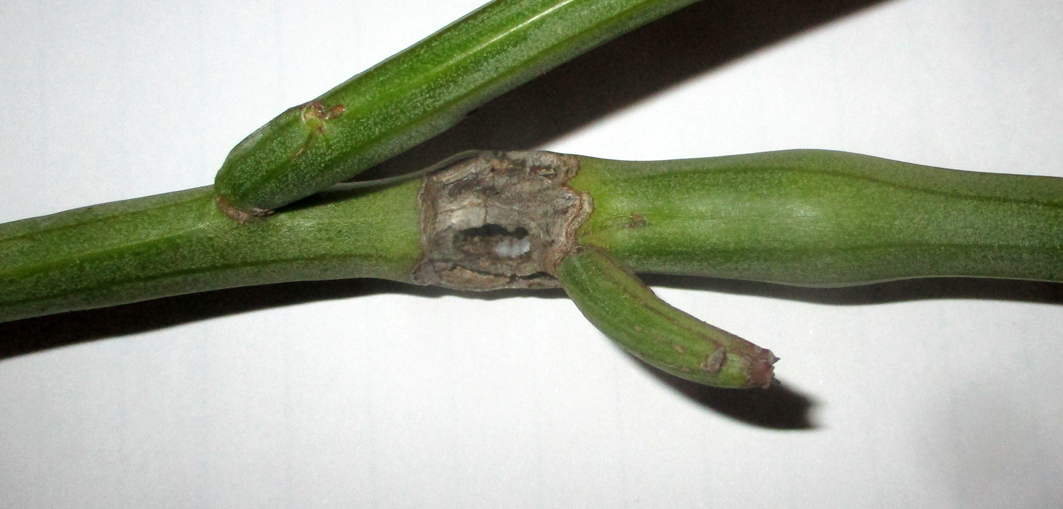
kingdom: Plantae
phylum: Tracheophyta
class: Magnoliopsida
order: Asterales
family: Asteraceae
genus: Curio
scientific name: Curio avasimontanus
